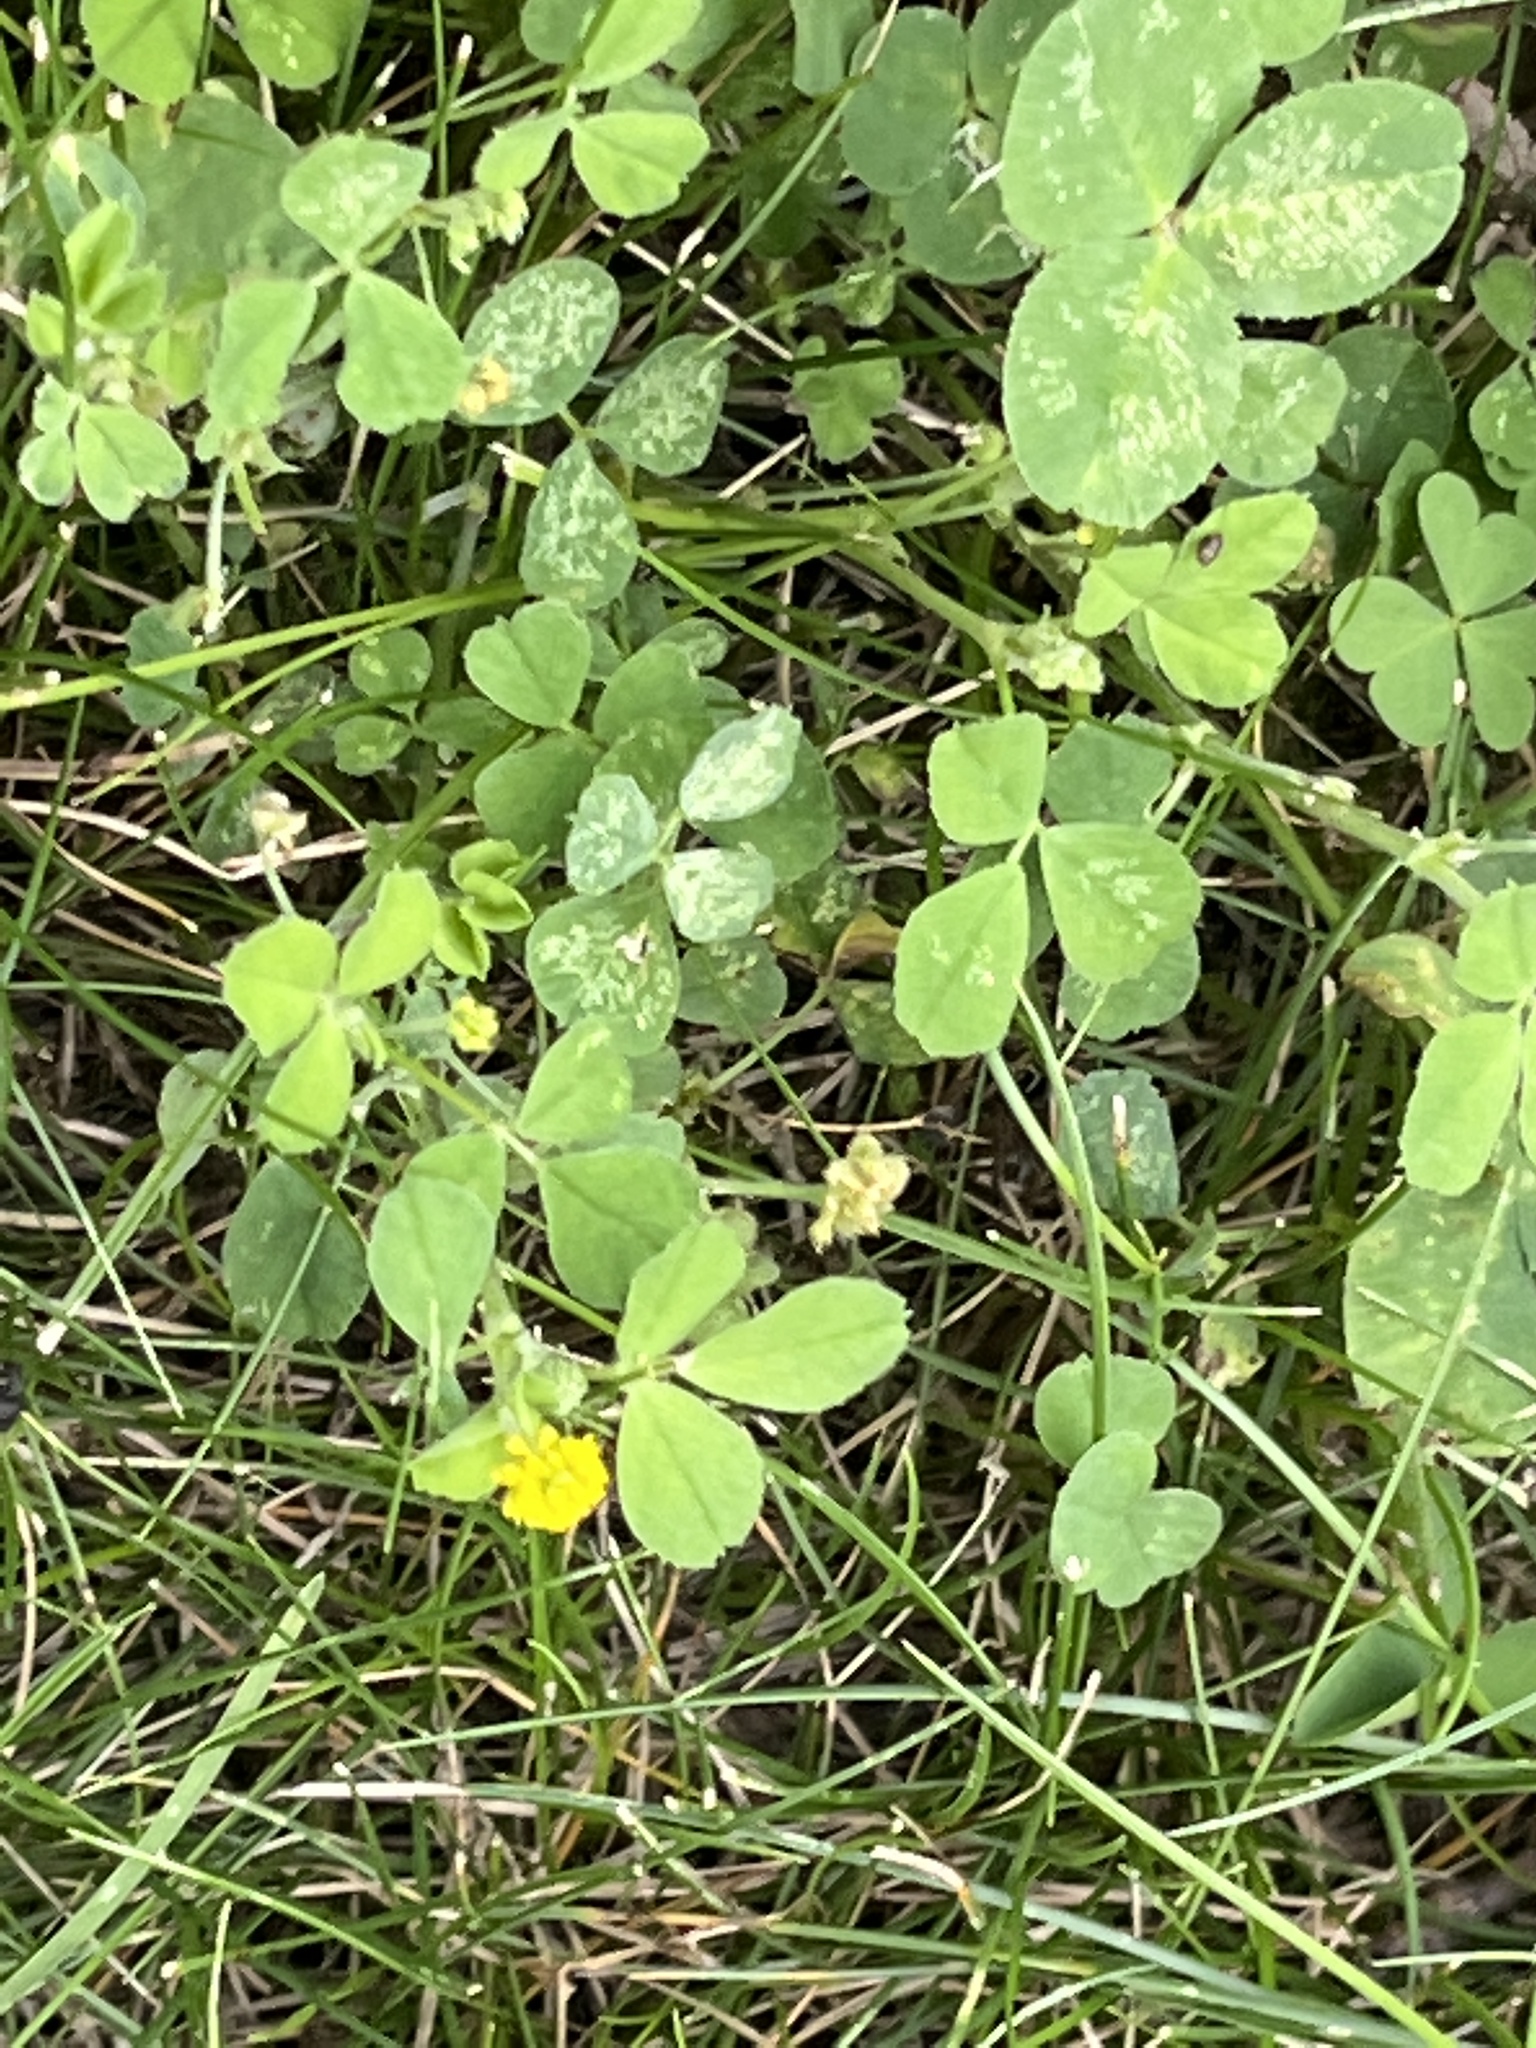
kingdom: Plantae
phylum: Tracheophyta
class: Magnoliopsida
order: Fabales
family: Fabaceae
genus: Medicago
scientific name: Medicago lupulina
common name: Black medick
